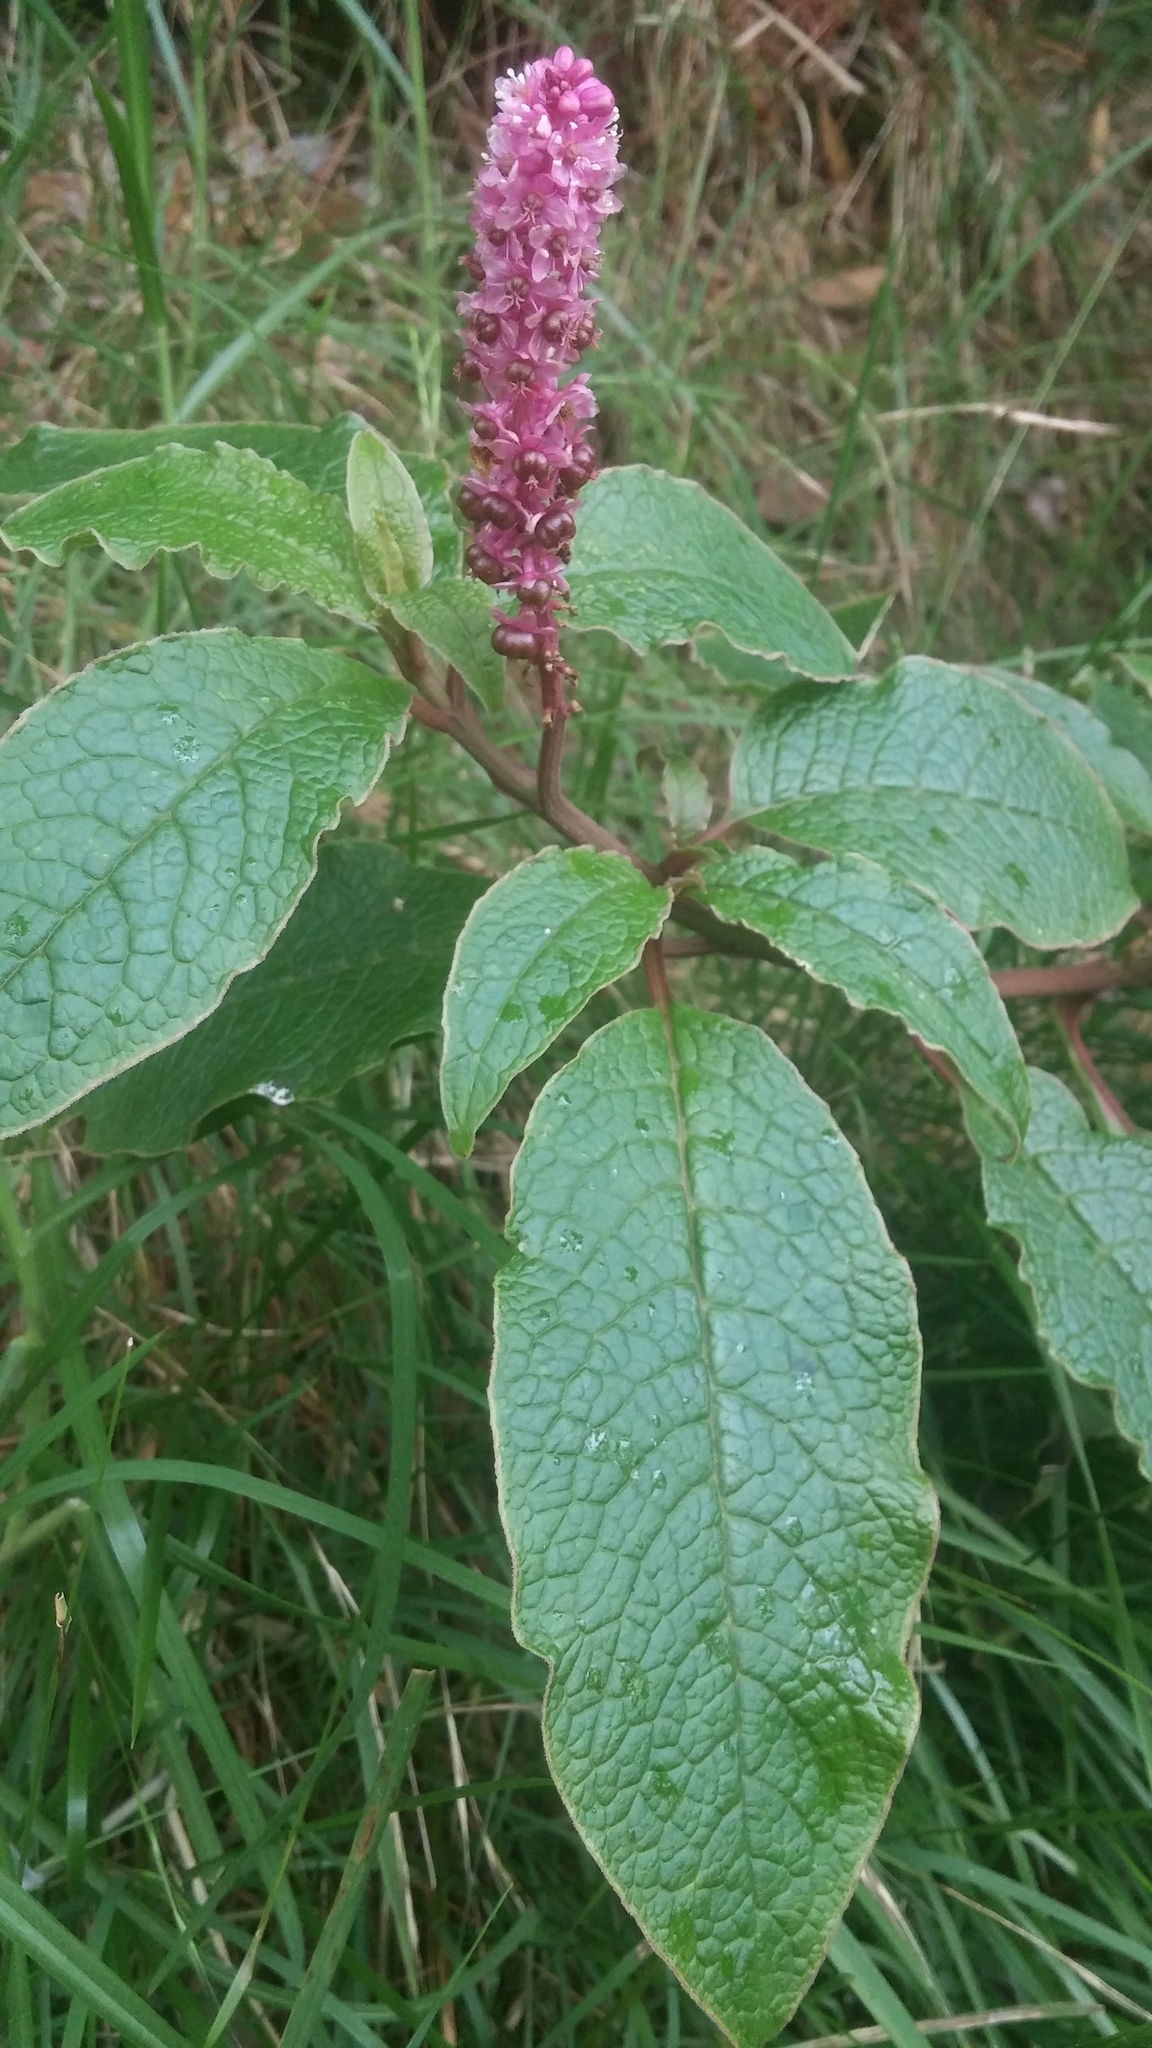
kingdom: Plantae
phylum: Tracheophyta
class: Magnoliopsida
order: Caryophyllales
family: Phytolaccaceae
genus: Phytolacca
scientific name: Phytolacca sandwicensis
